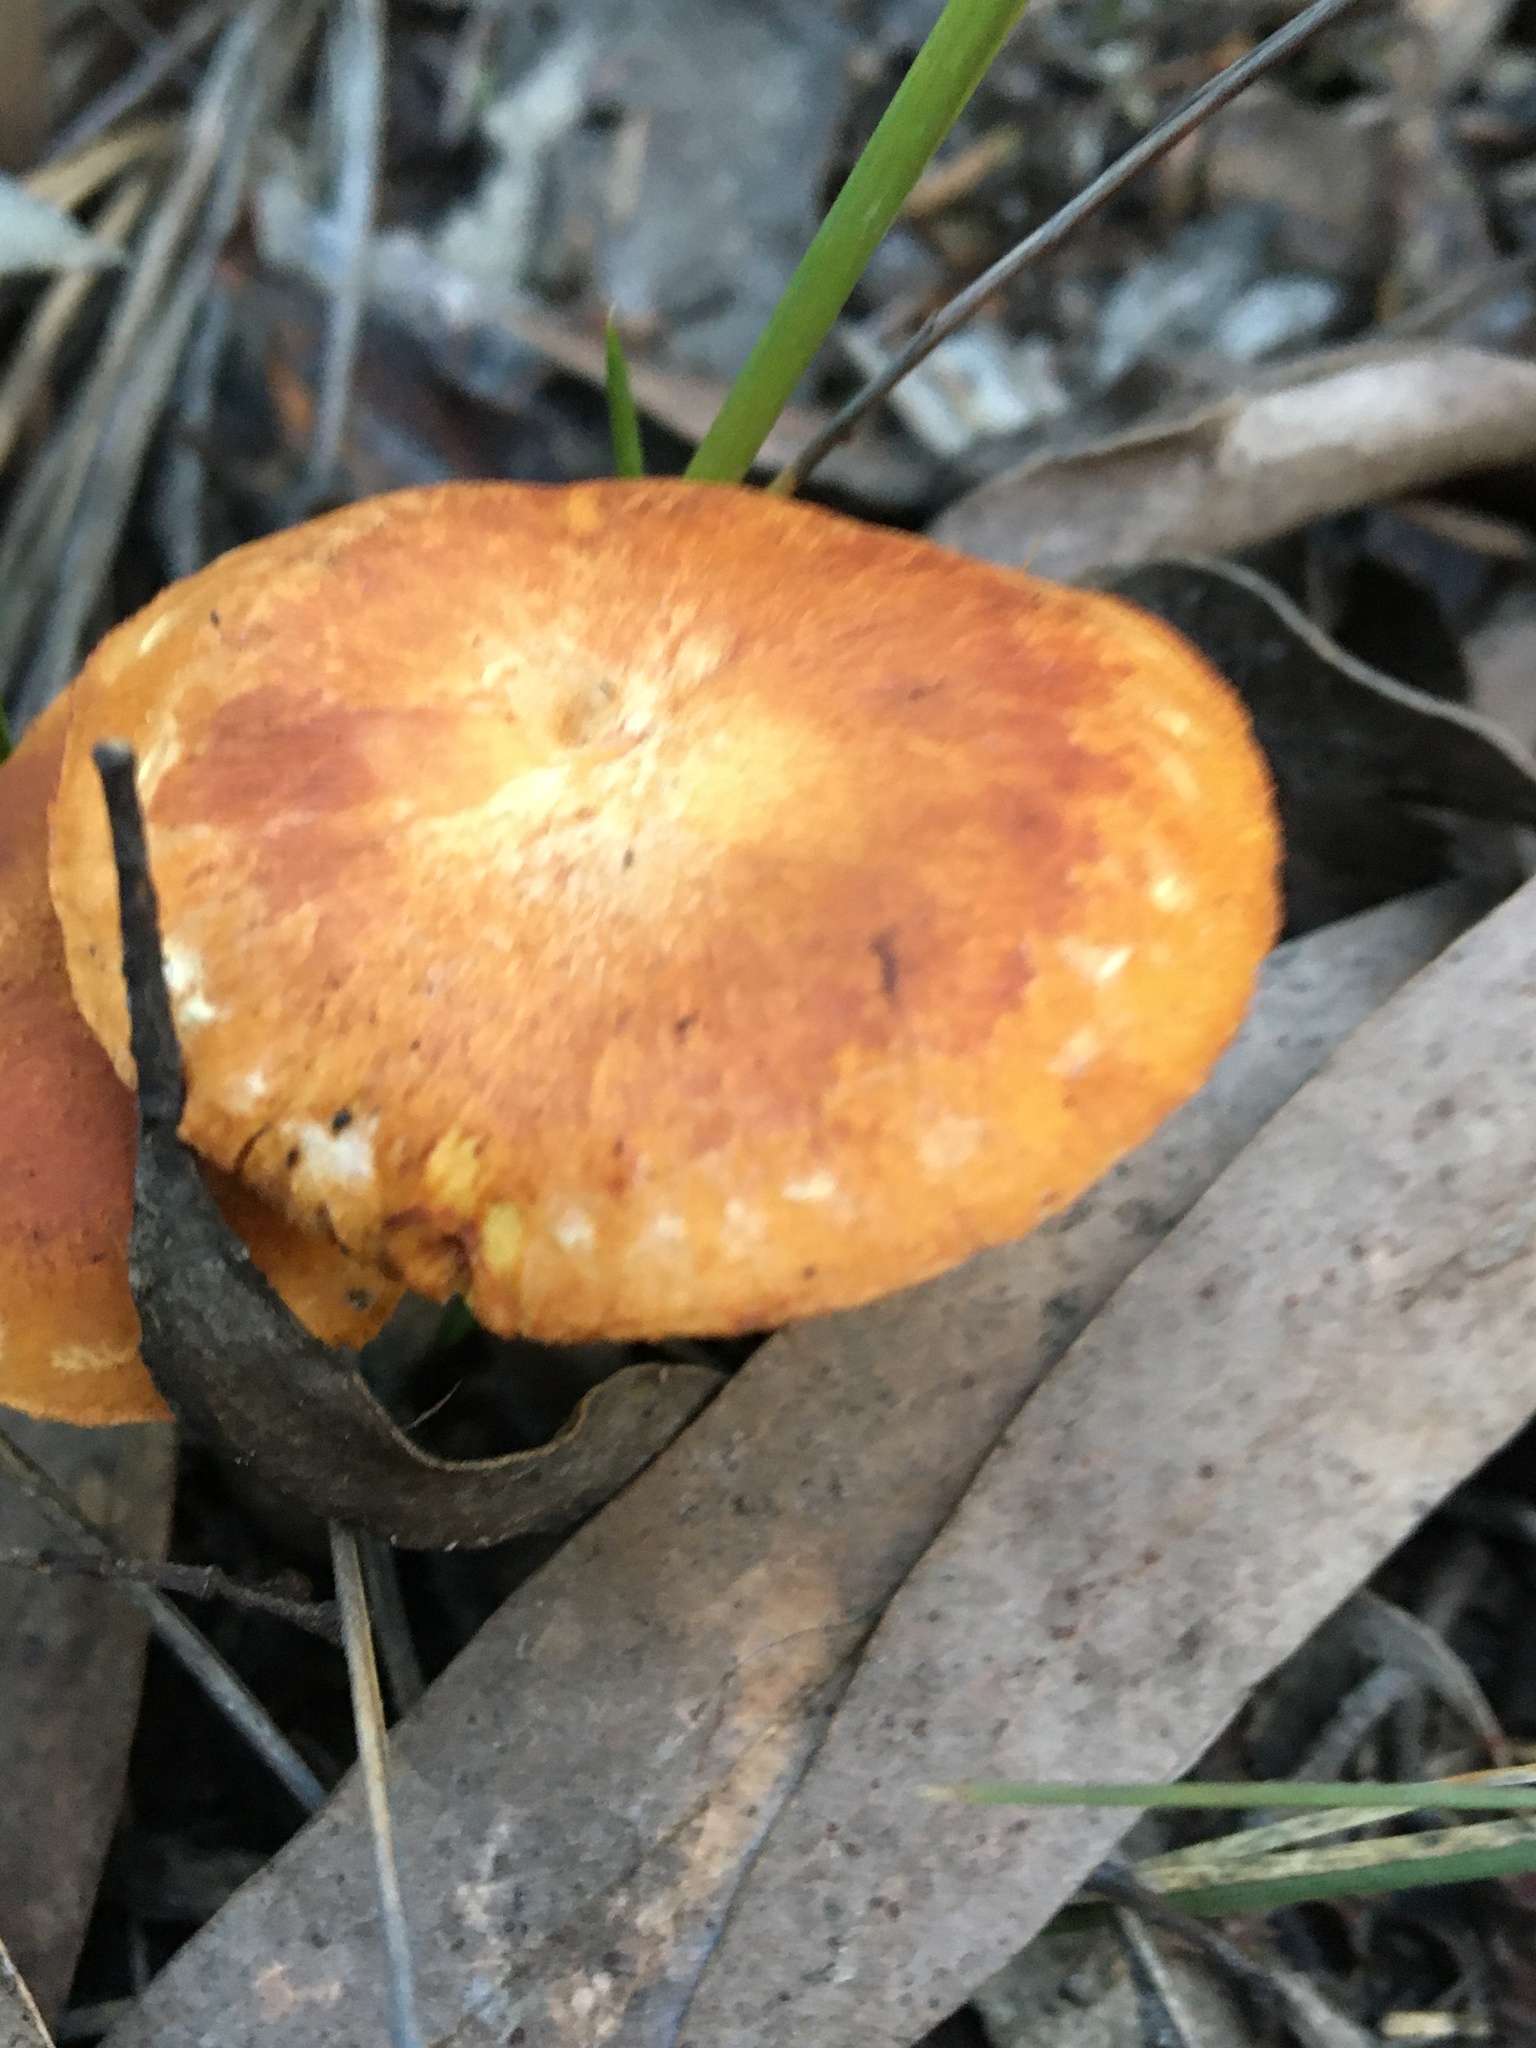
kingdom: Fungi
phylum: Basidiomycota
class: Agaricomycetes
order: Agaricales
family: Hymenogastraceae
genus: Gymnopilus
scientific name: Gymnopilus allantopus
